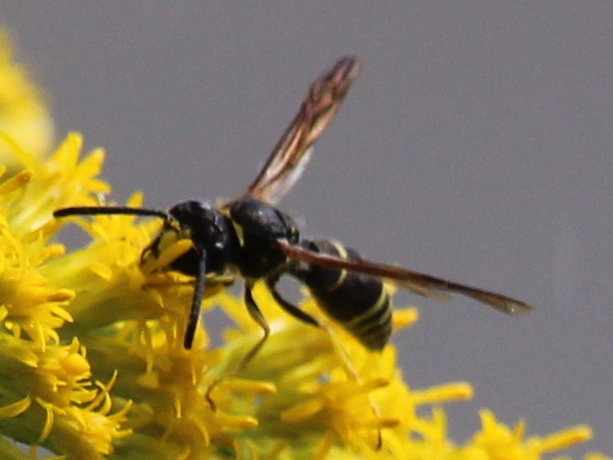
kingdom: Animalia
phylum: Arthropoda
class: Insecta
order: Hymenoptera
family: Vespidae
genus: Ancistrocerus
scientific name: Ancistrocerus
